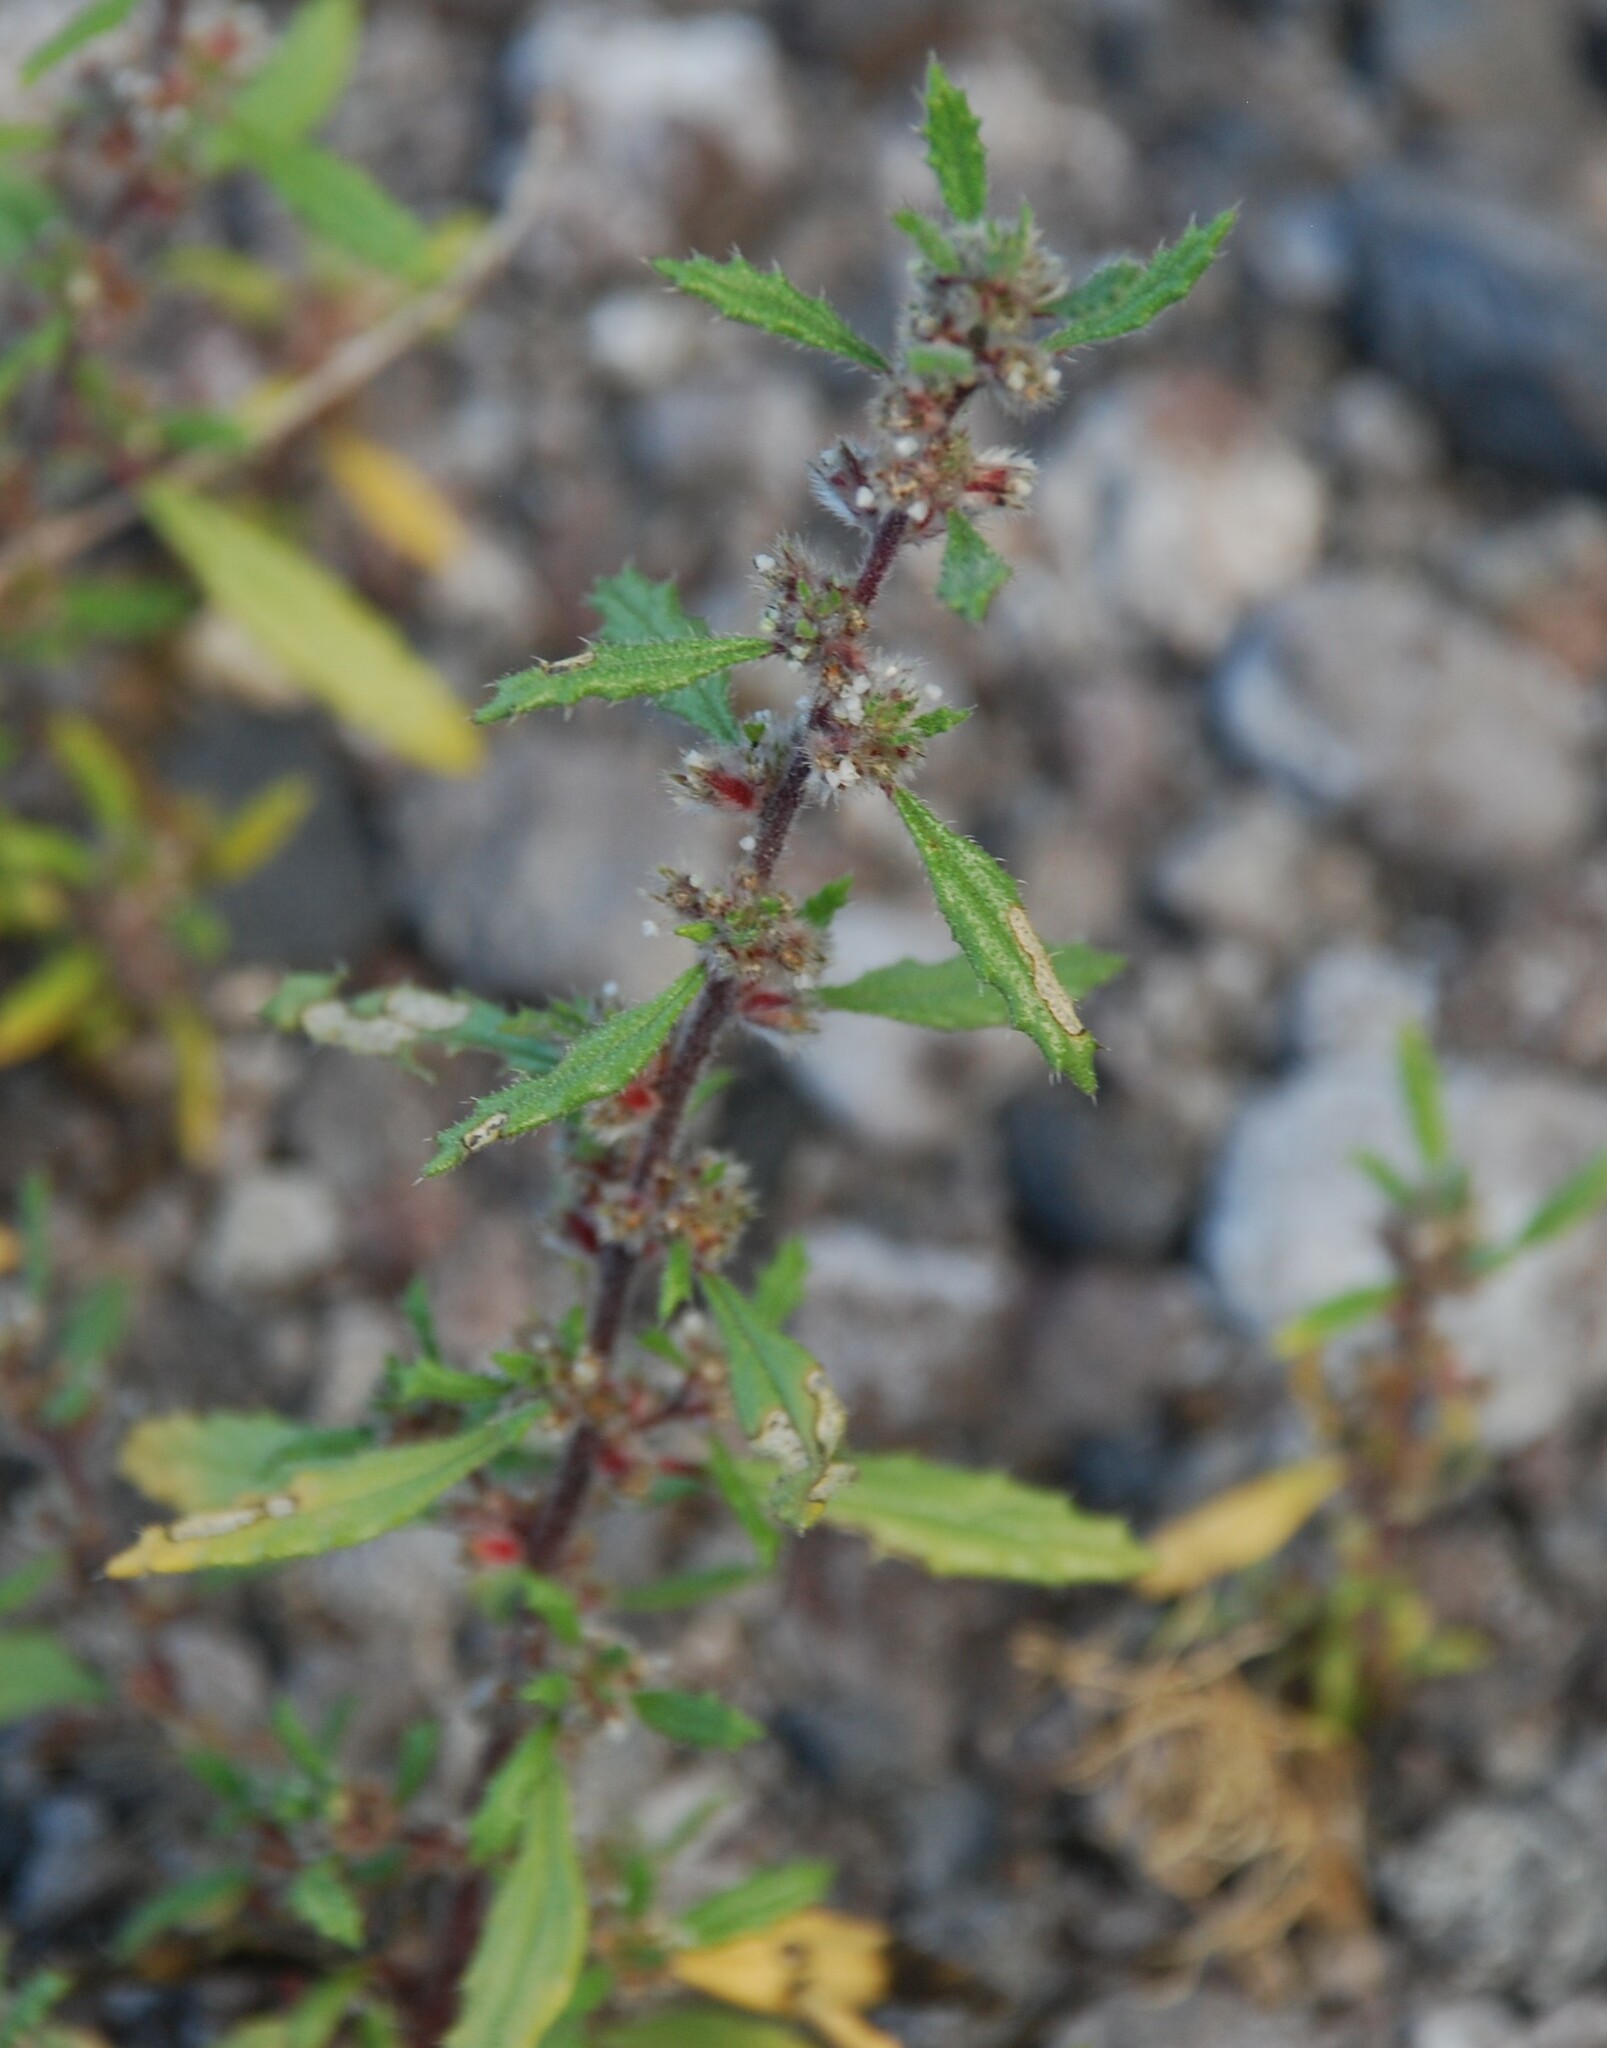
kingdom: Plantae
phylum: Tracheophyta
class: Magnoliopsida
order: Rosales
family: Urticaceae
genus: Forsskaolea
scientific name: Forsskaolea angustifolia
